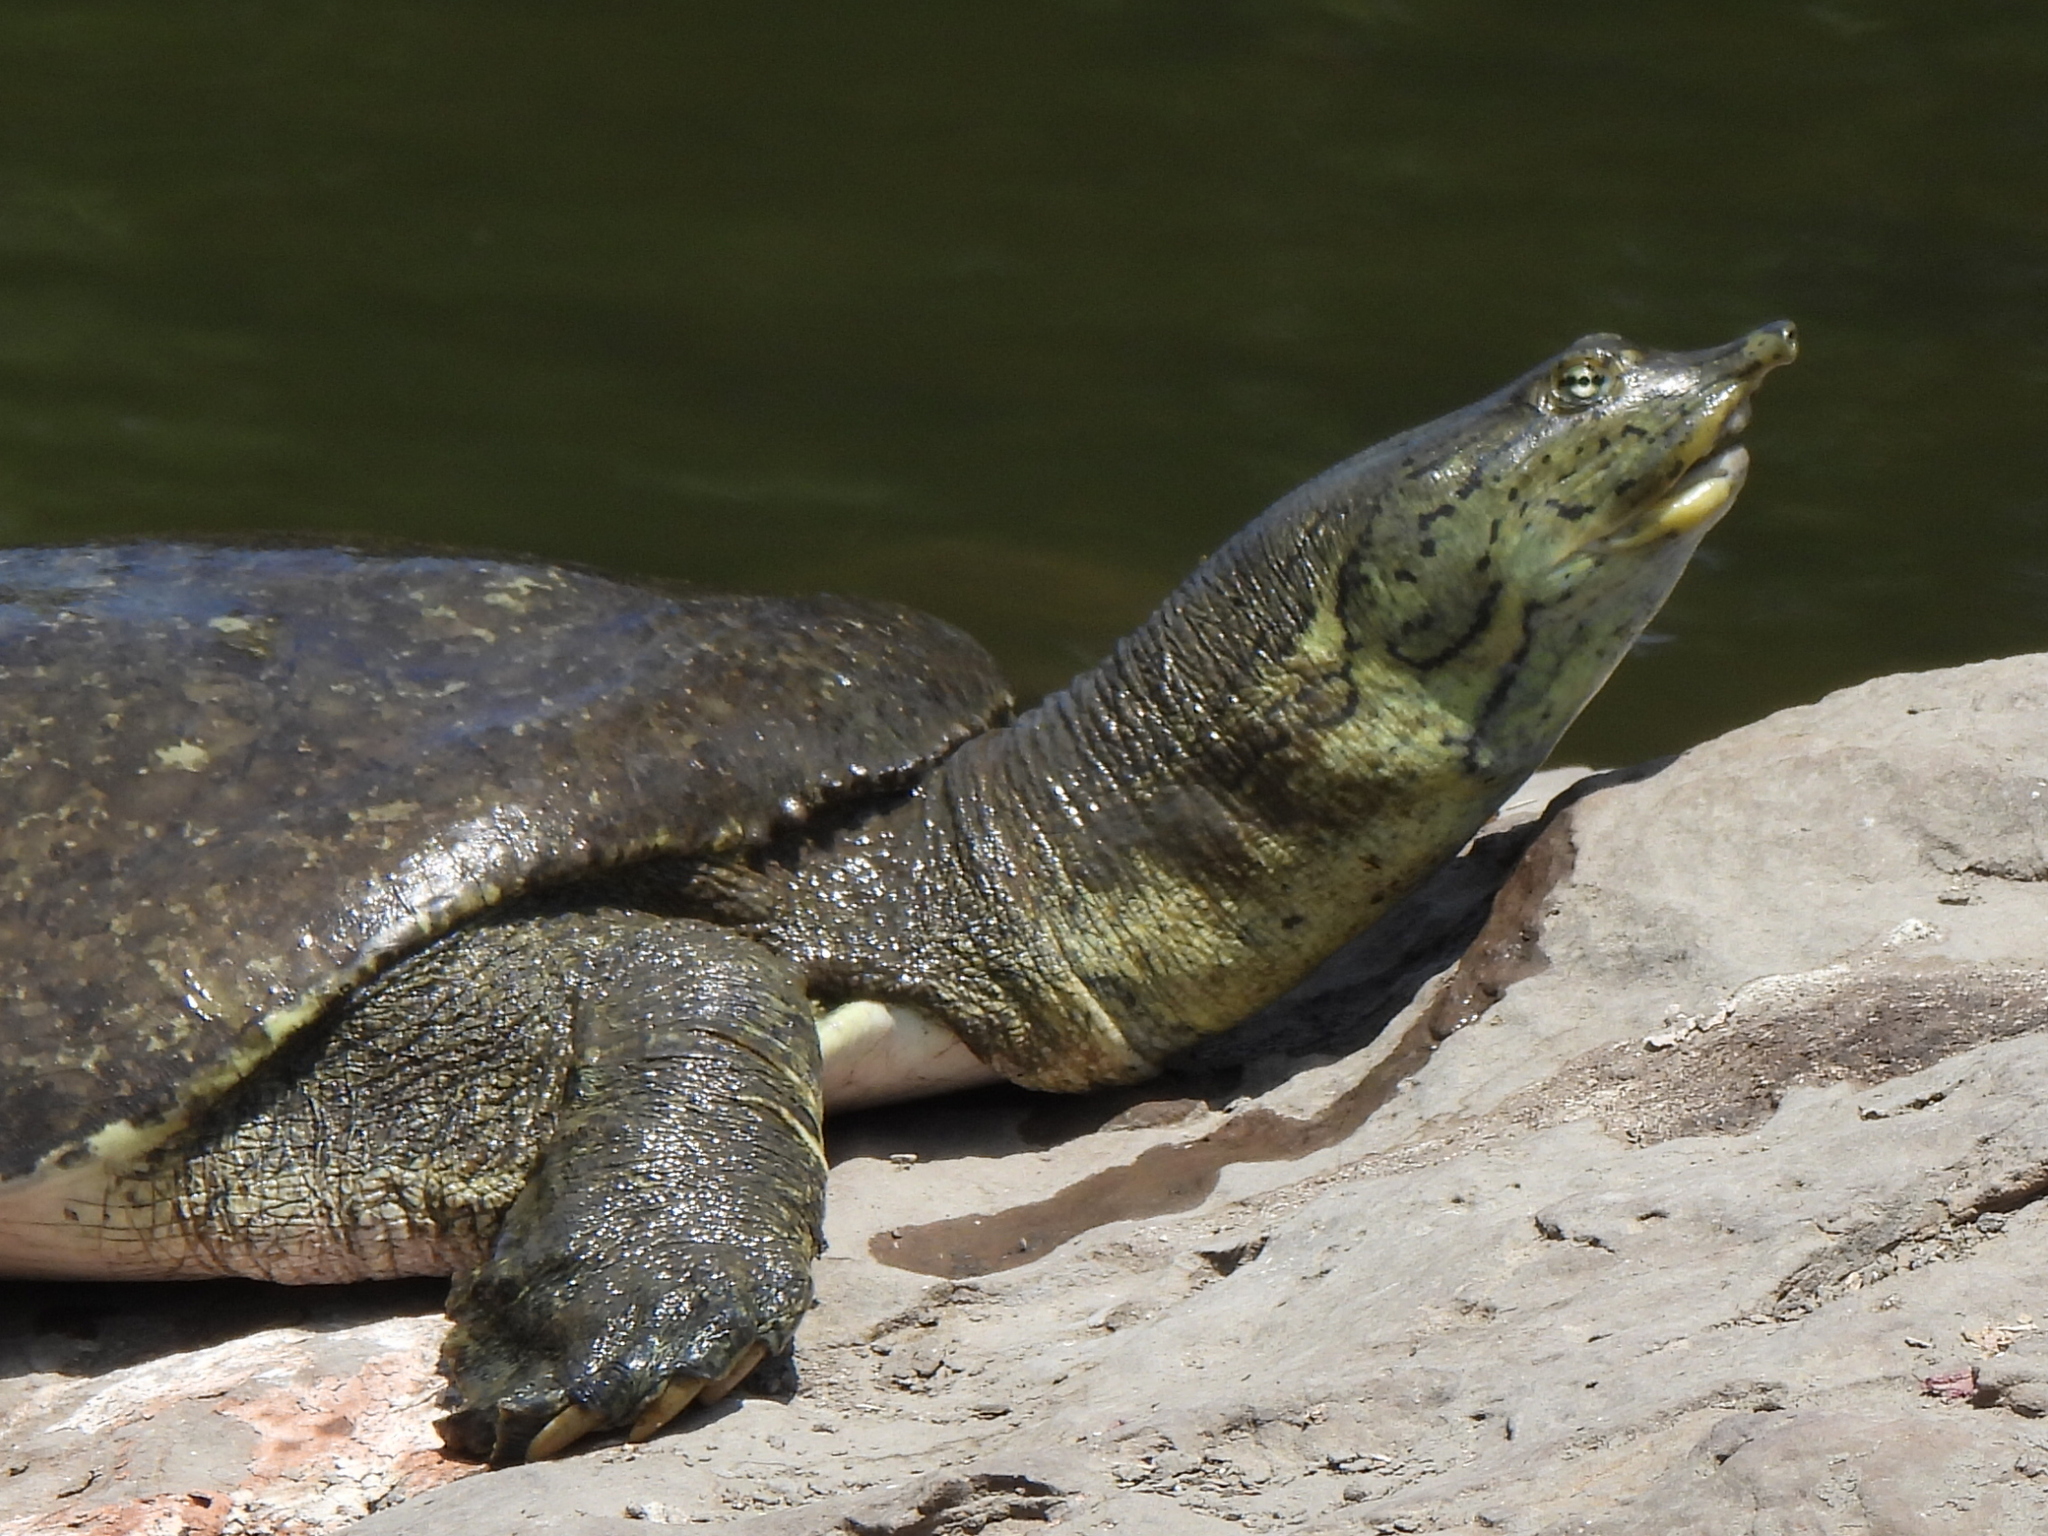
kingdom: Animalia
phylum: Chordata
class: Testudines
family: Trionychidae
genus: Apalone
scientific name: Apalone spinifera
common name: Spiny softshell turtle
